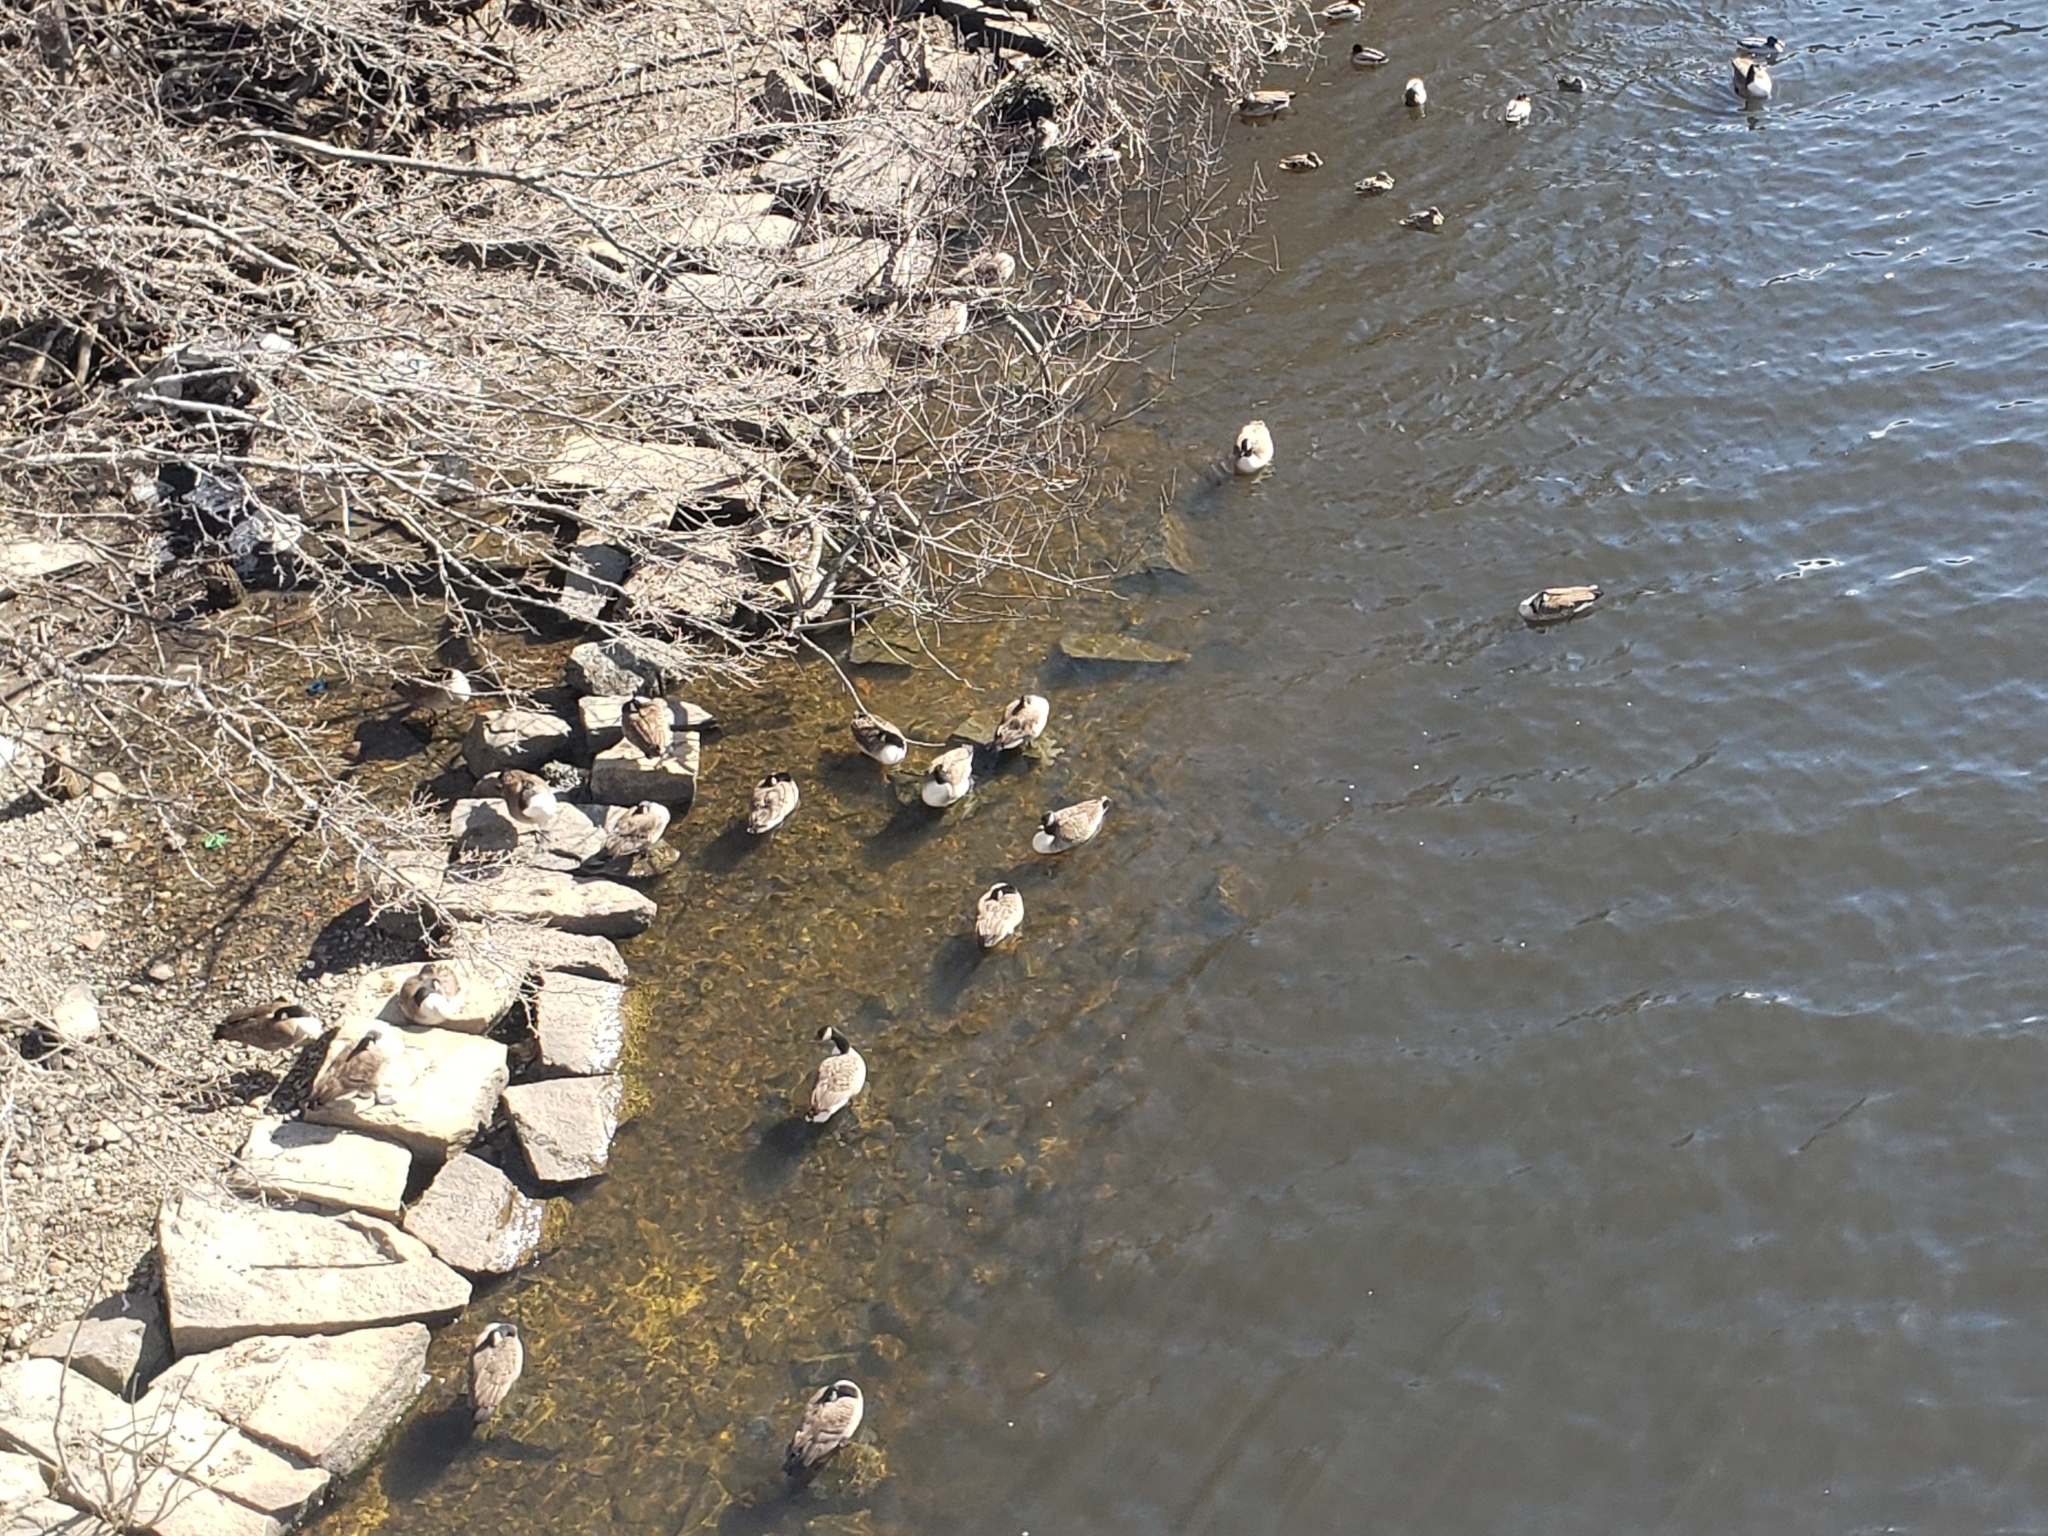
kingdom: Animalia
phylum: Chordata
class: Aves
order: Anseriformes
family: Anatidae
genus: Branta
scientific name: Branta canadensis
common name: Canada goose
